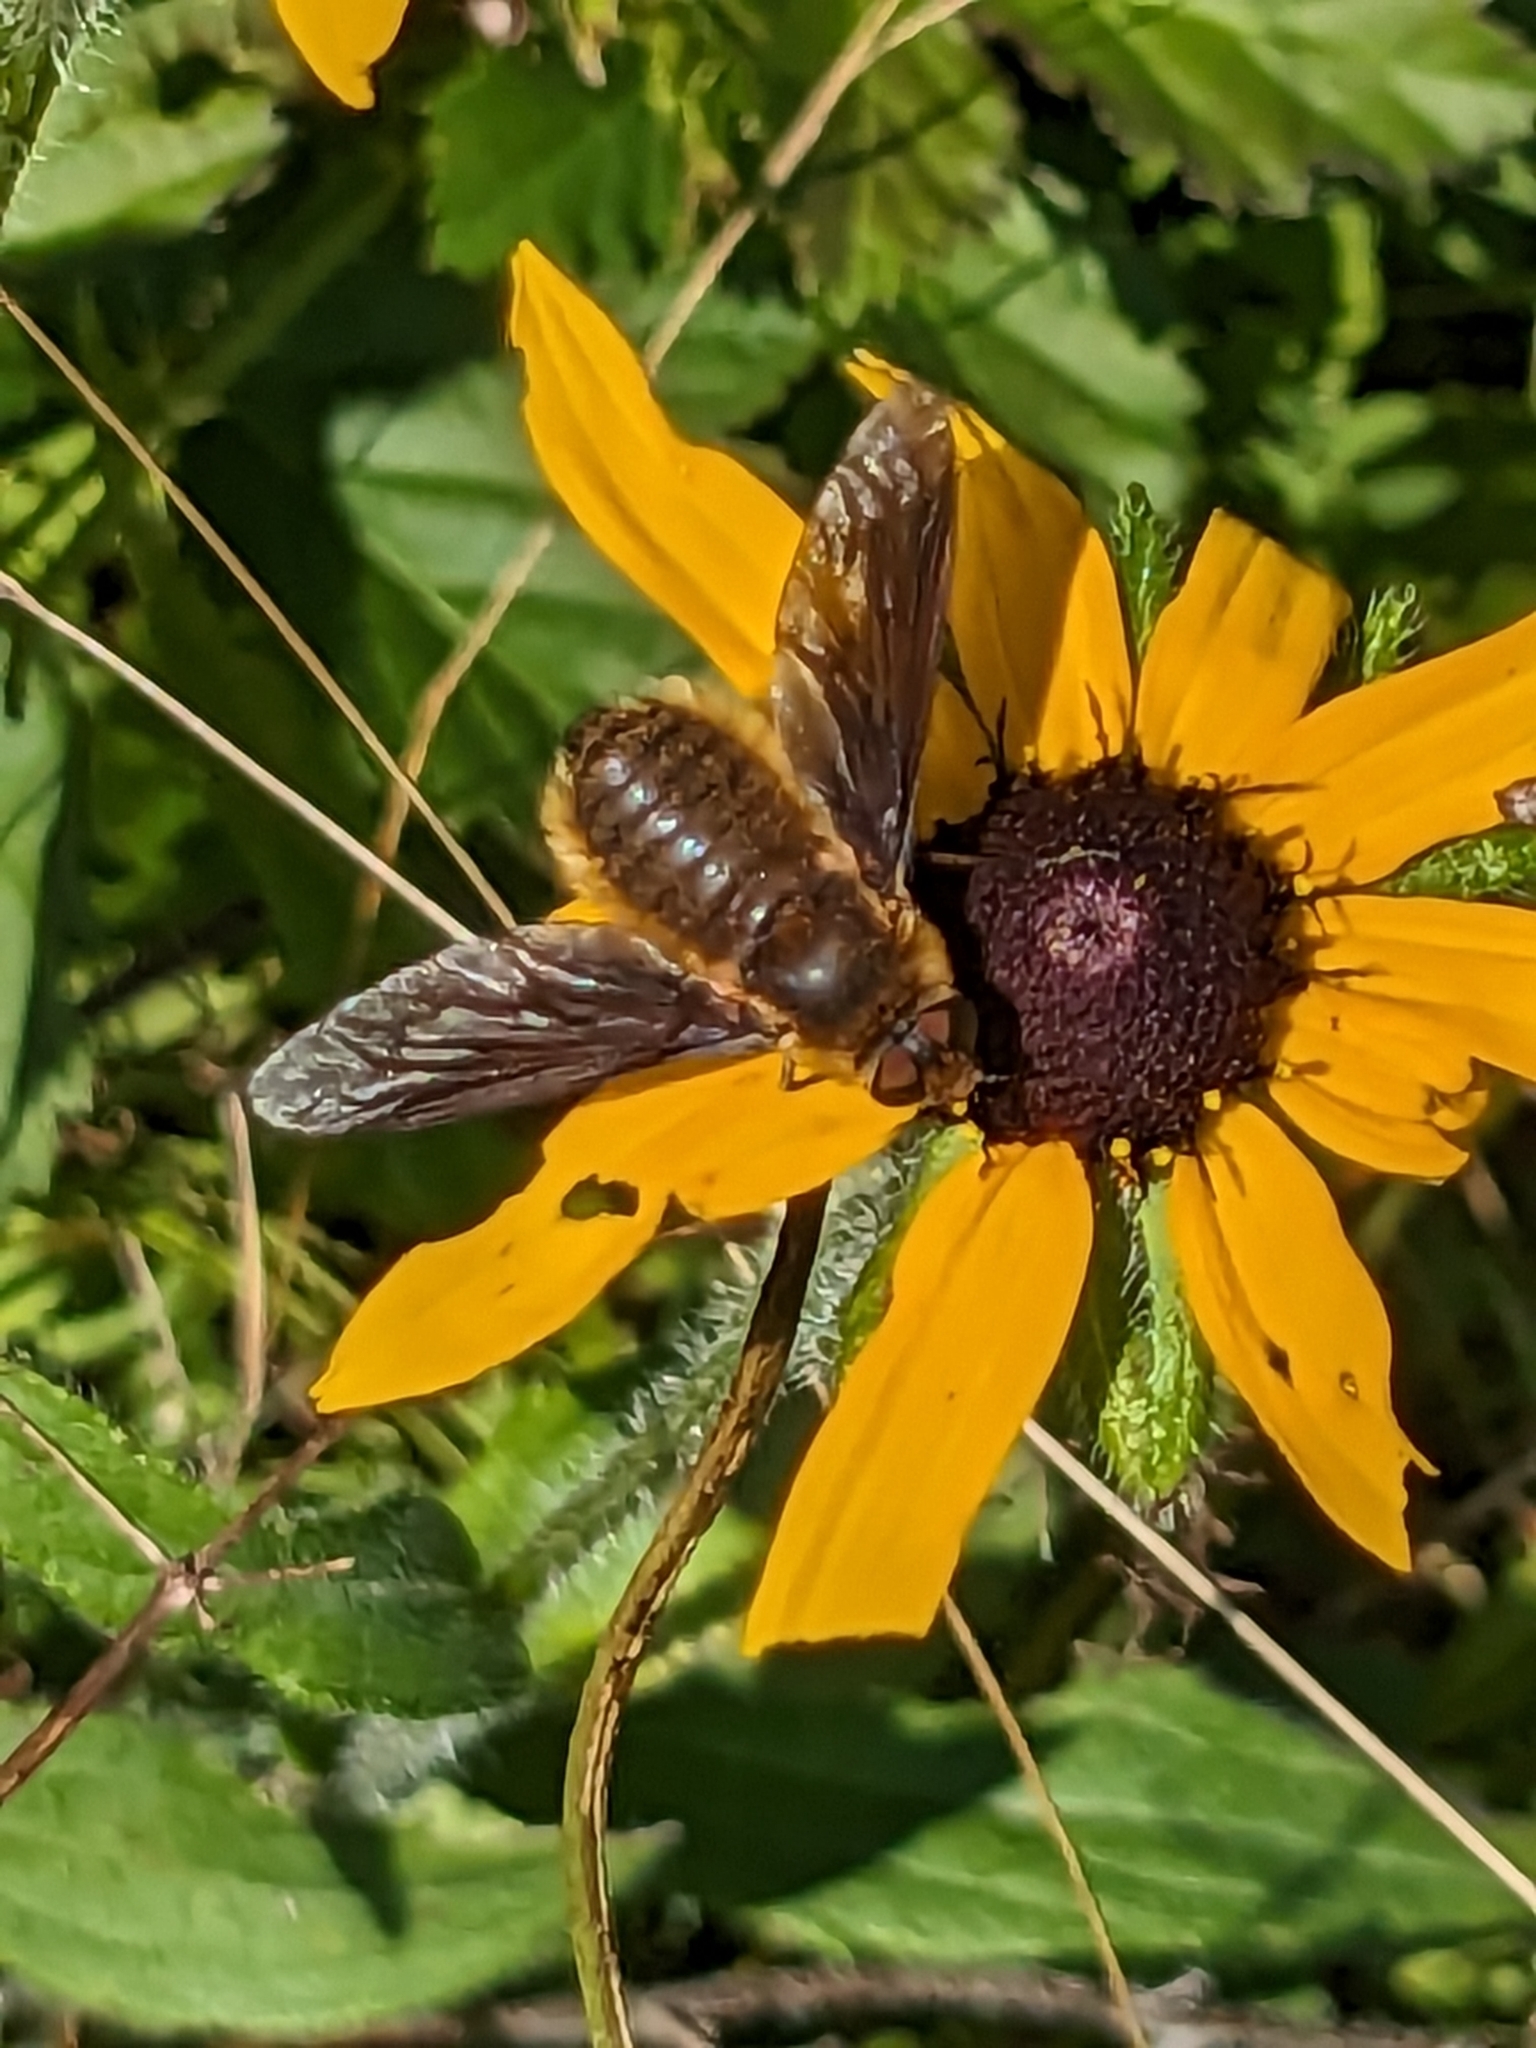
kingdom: Animalia
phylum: Arthropoda
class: Insecta
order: Diptera
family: Bombyliidae
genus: Poecilanthrax
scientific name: Poecilanthrax tegminipennis
